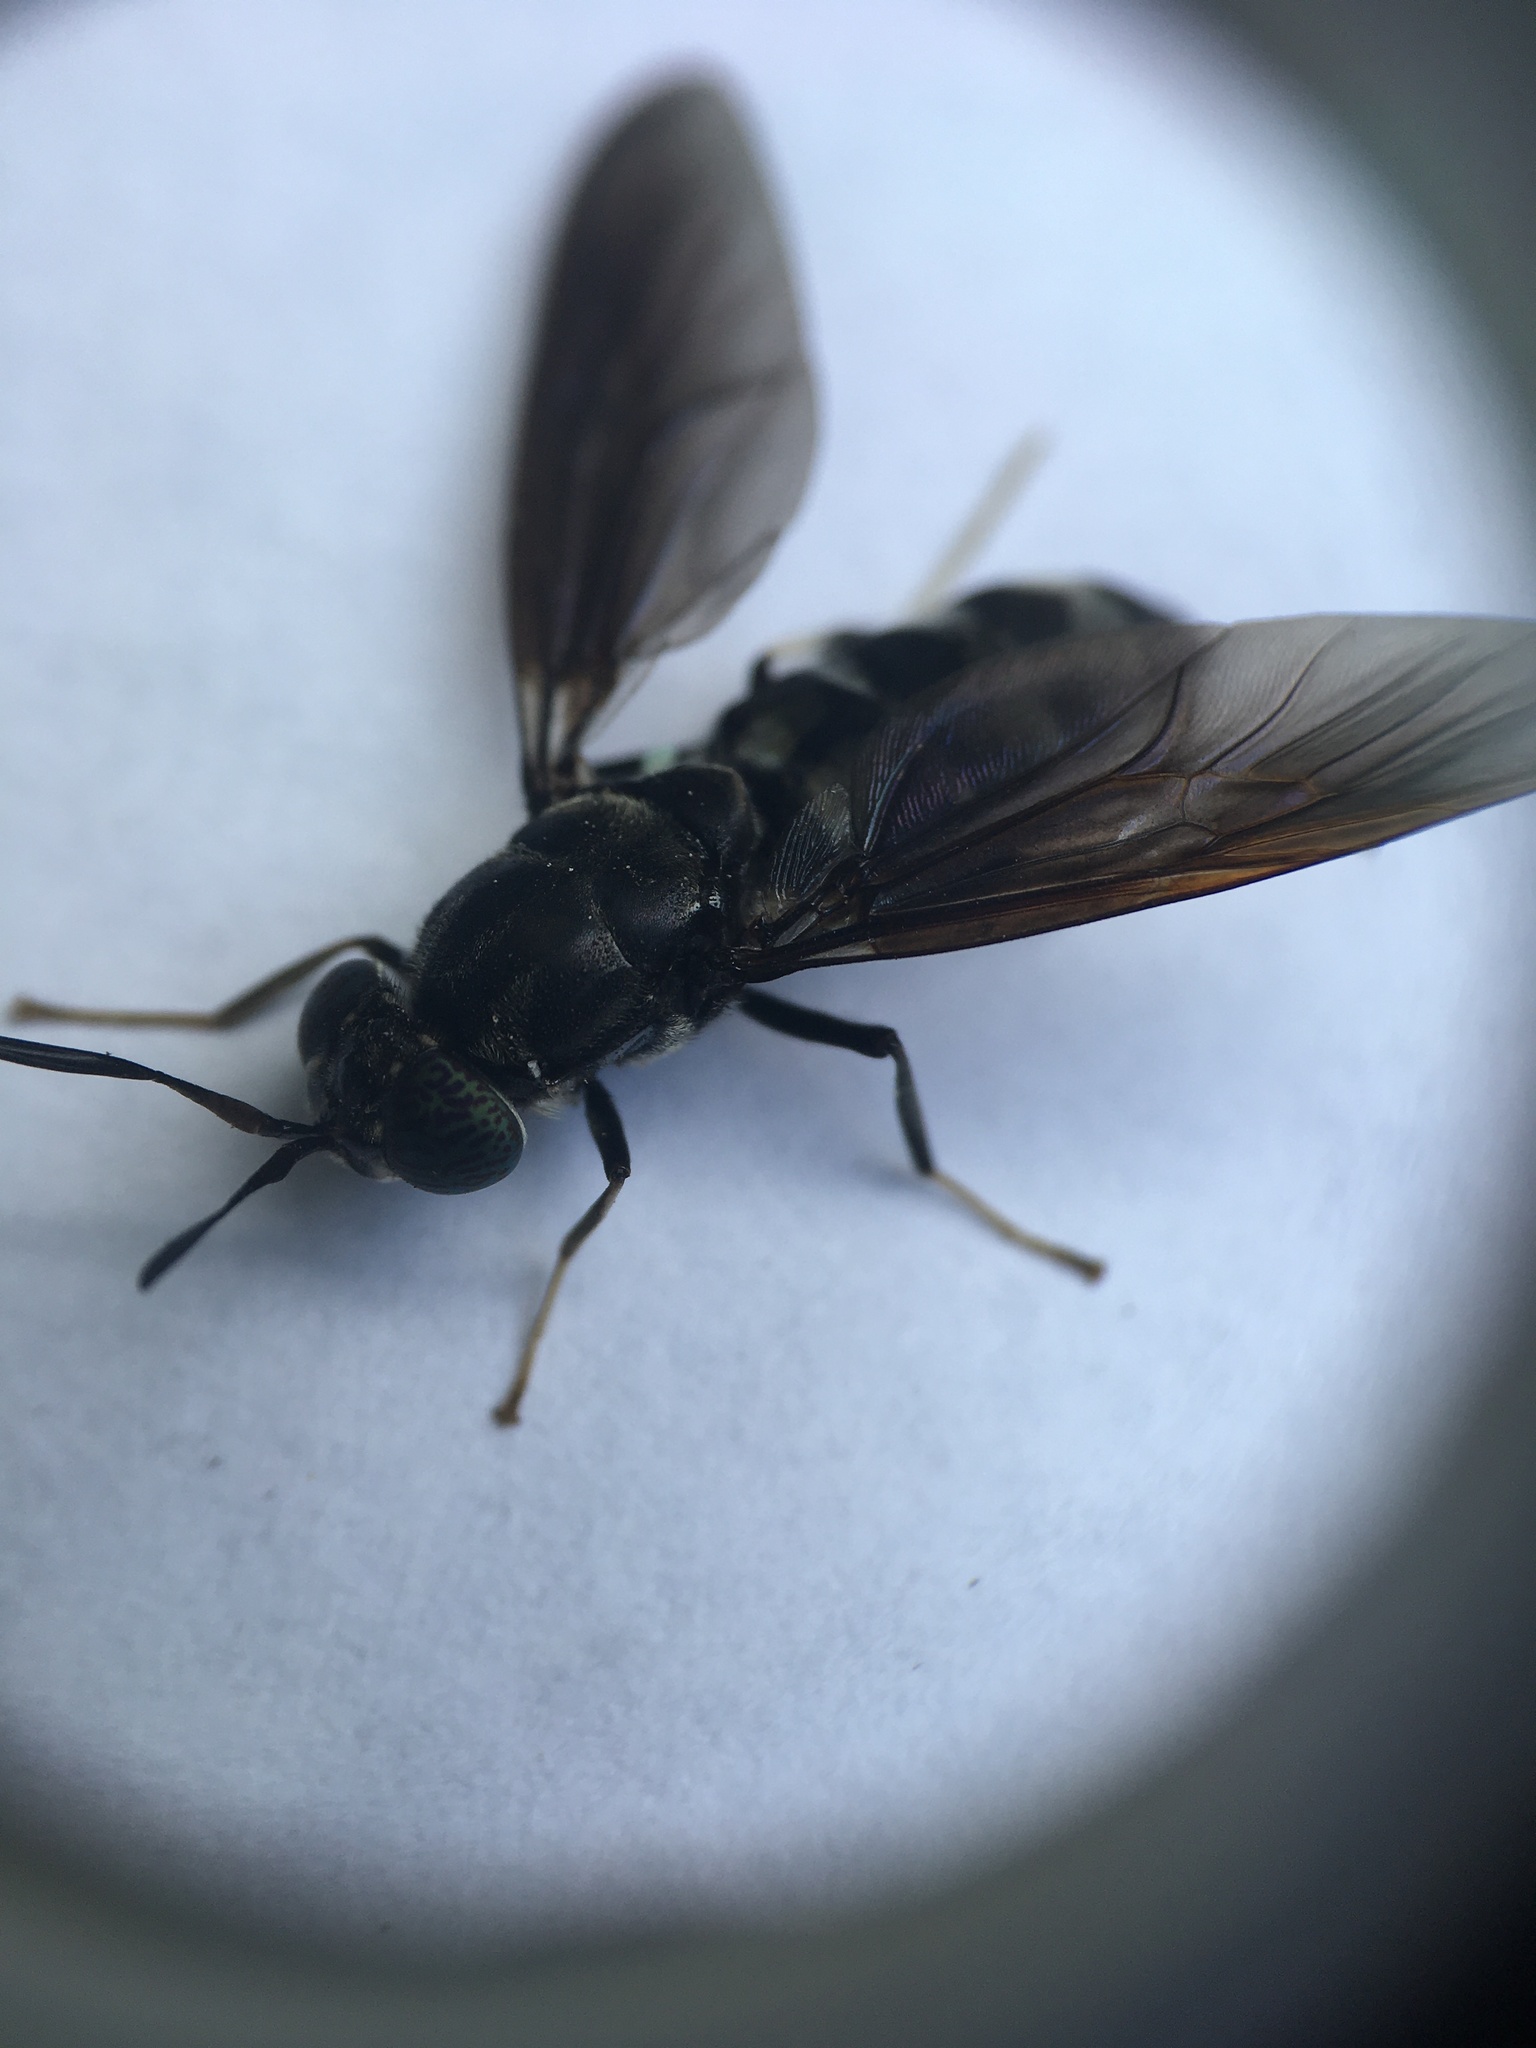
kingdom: Animalia
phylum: Arthropoda
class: Insecta
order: Diptera
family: Stratiomyidae
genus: Hermetia
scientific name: Hermetia illucens
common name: Black soldier fly
